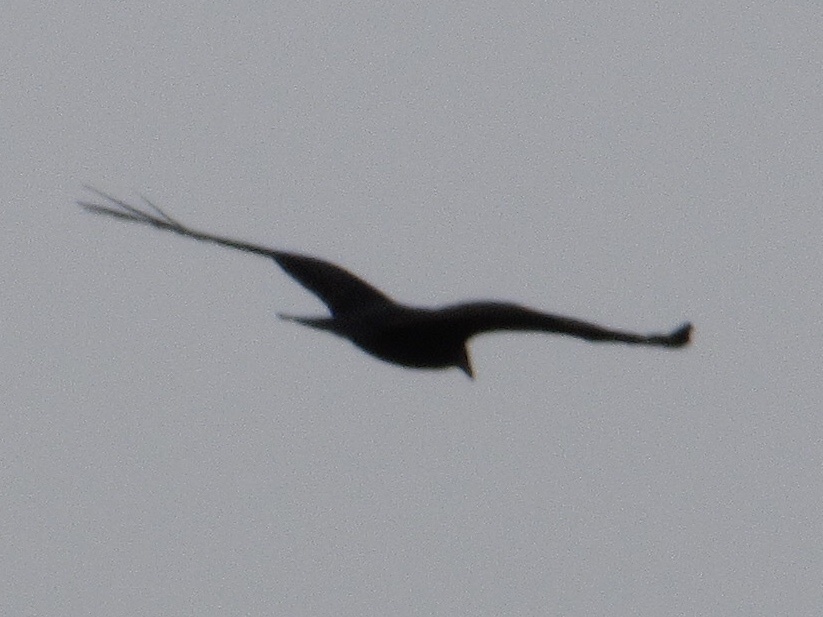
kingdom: Animalia
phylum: Chordata
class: Aves
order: Accipitriformes
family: Cathartidae
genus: Cathartes
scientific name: Cathartes aura
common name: Turkey vulture
